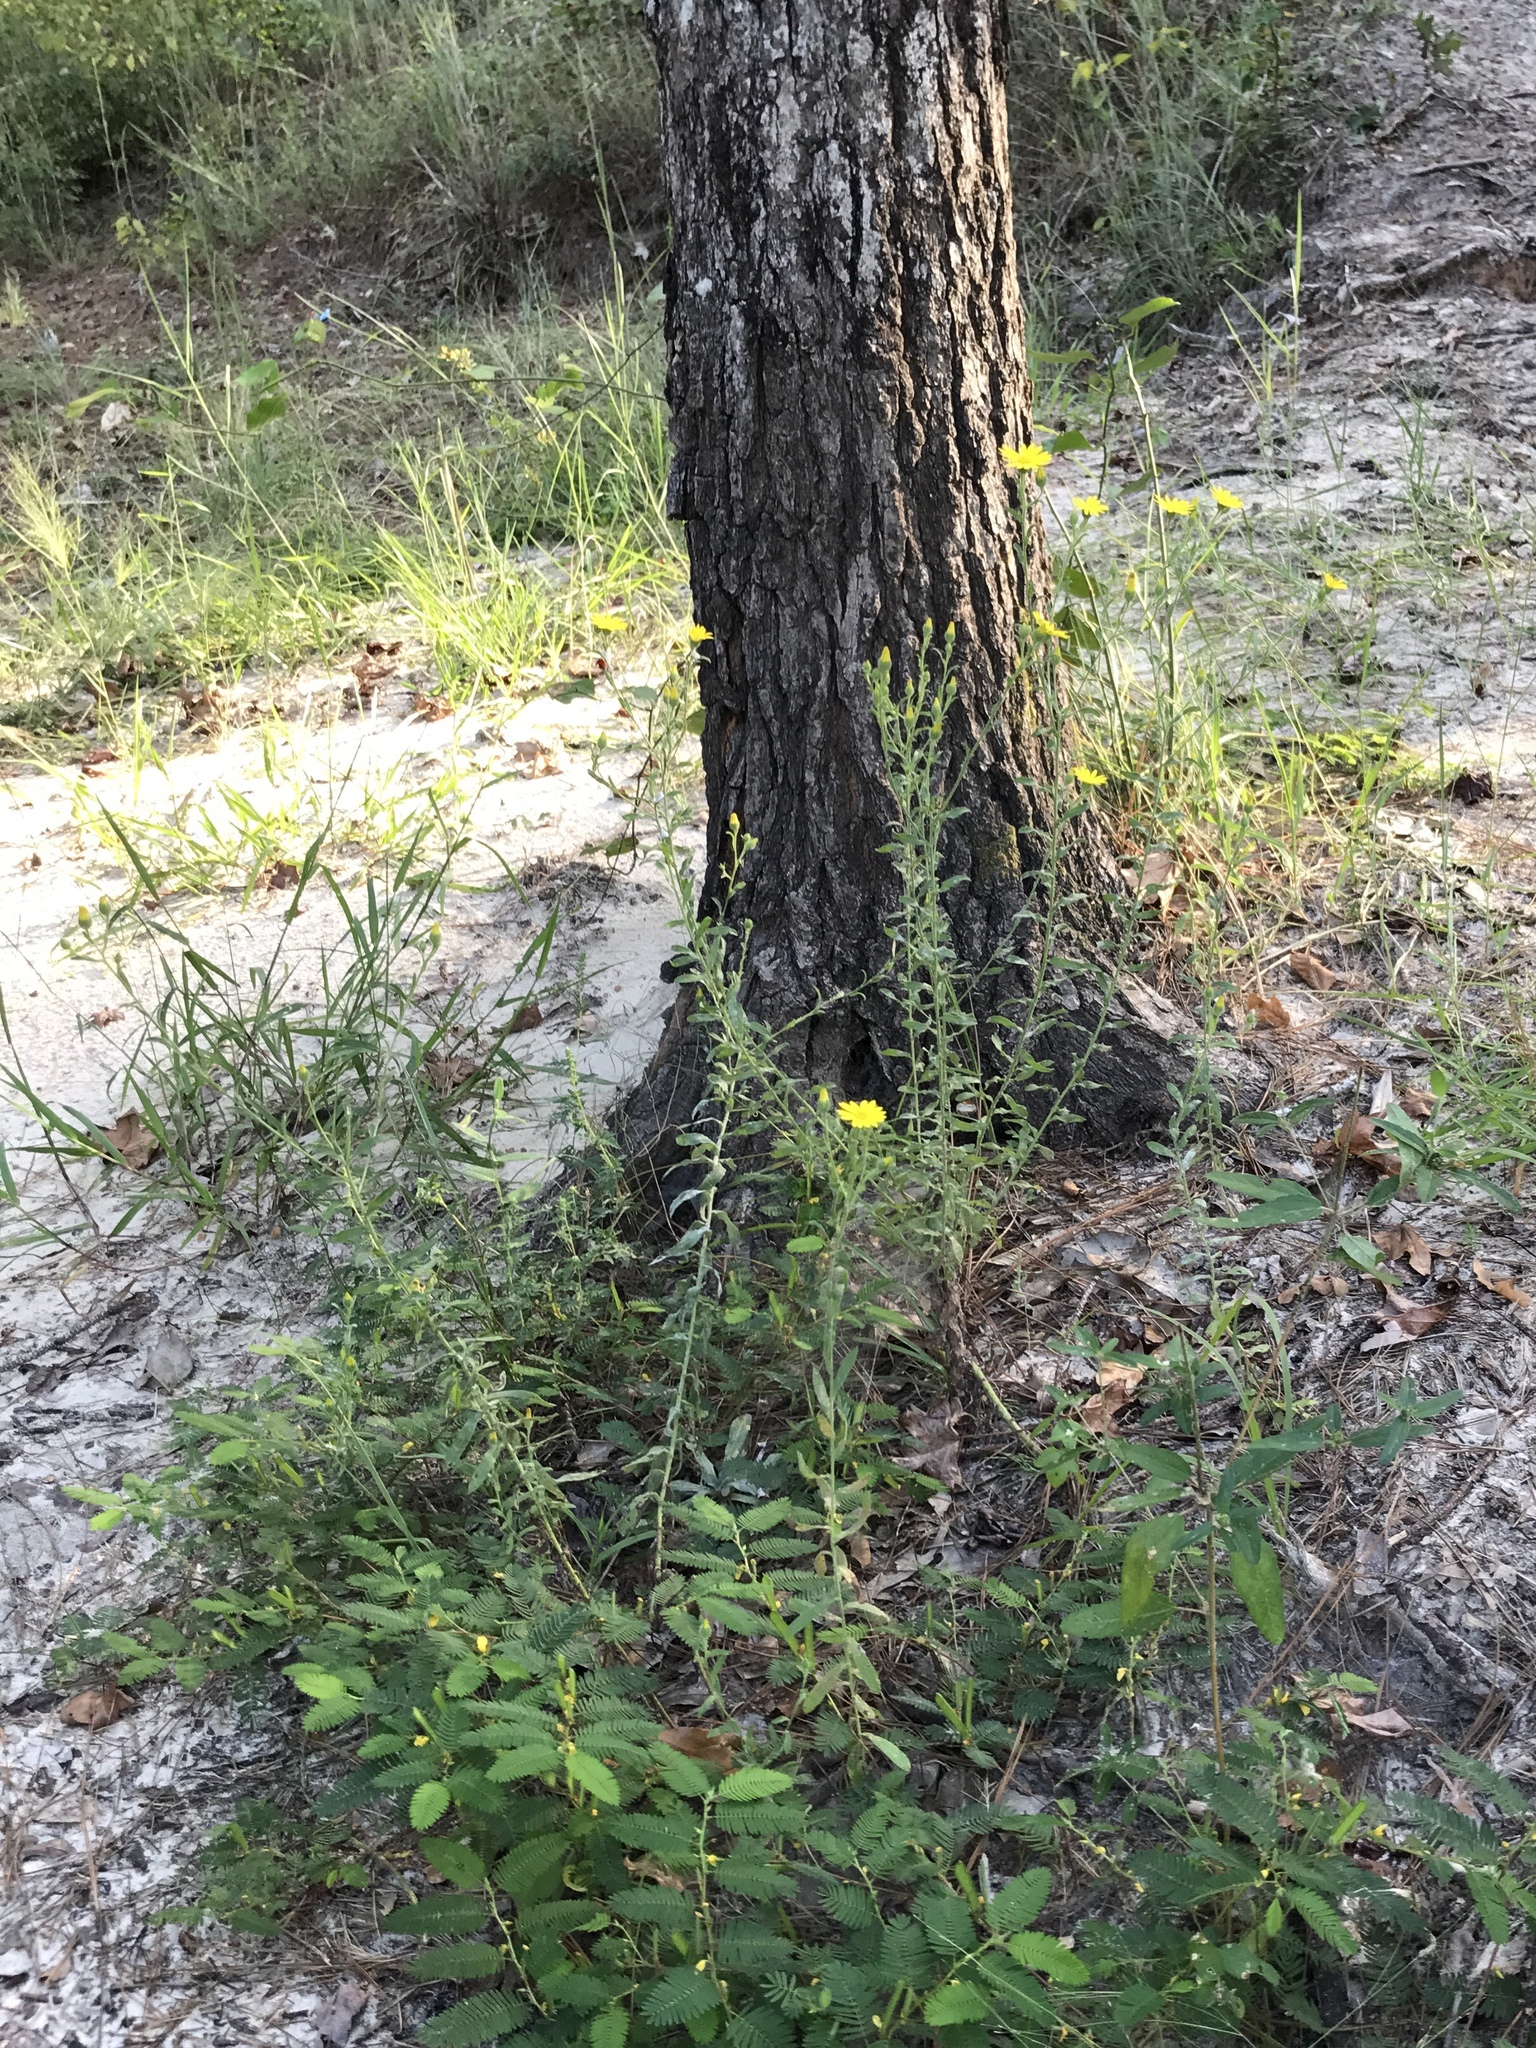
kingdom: Plantae
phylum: Tracheophyta
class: Magnoliopsida
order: Asterales
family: Asteraceae
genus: Bradburia
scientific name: Bradburia pilosa
